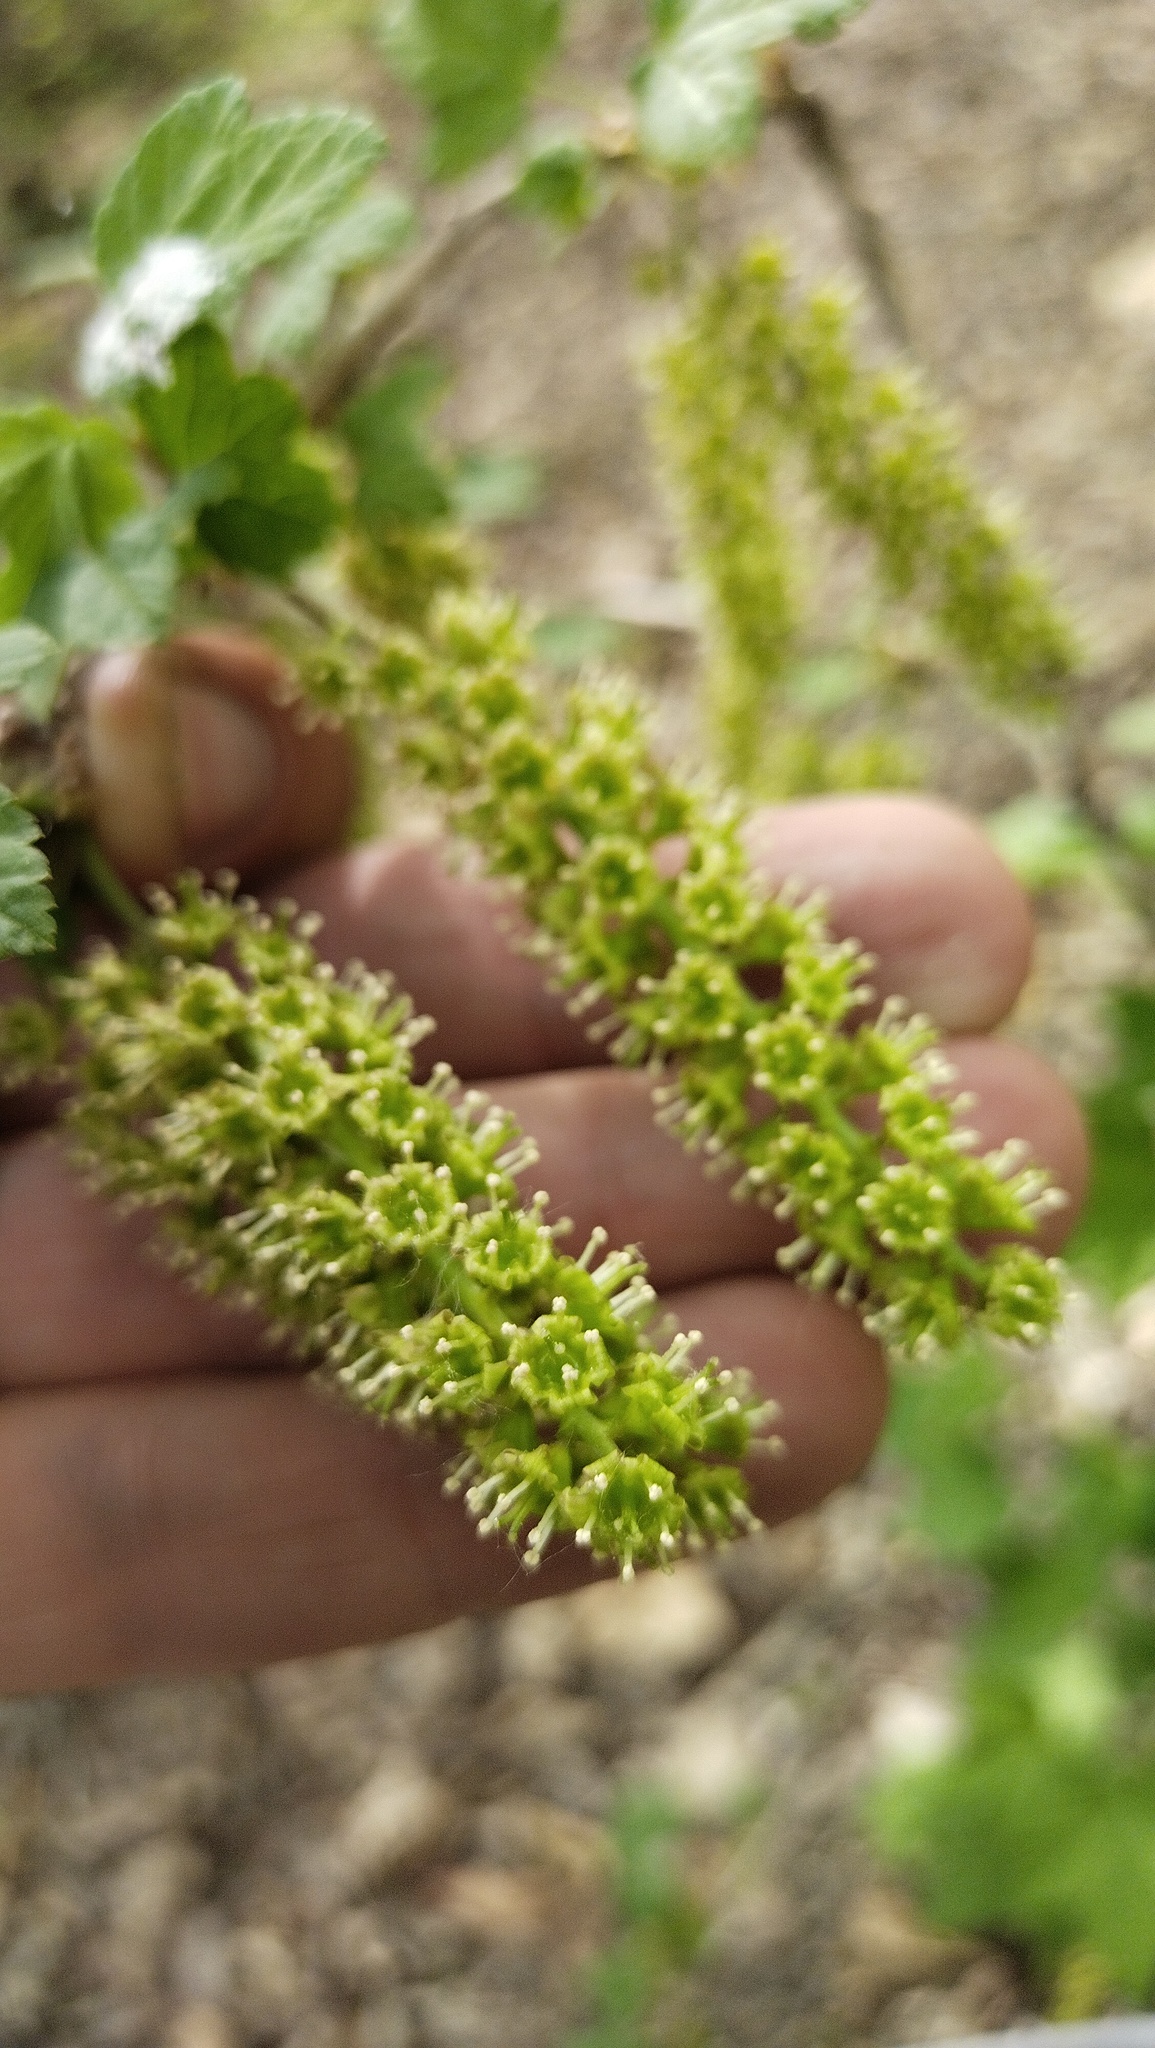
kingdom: Plantae
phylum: Tracheophyta
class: Magnoliopsida
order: Saxifragales
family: Grossulariaceae
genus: Ribes
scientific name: Ribes mandshuricum
